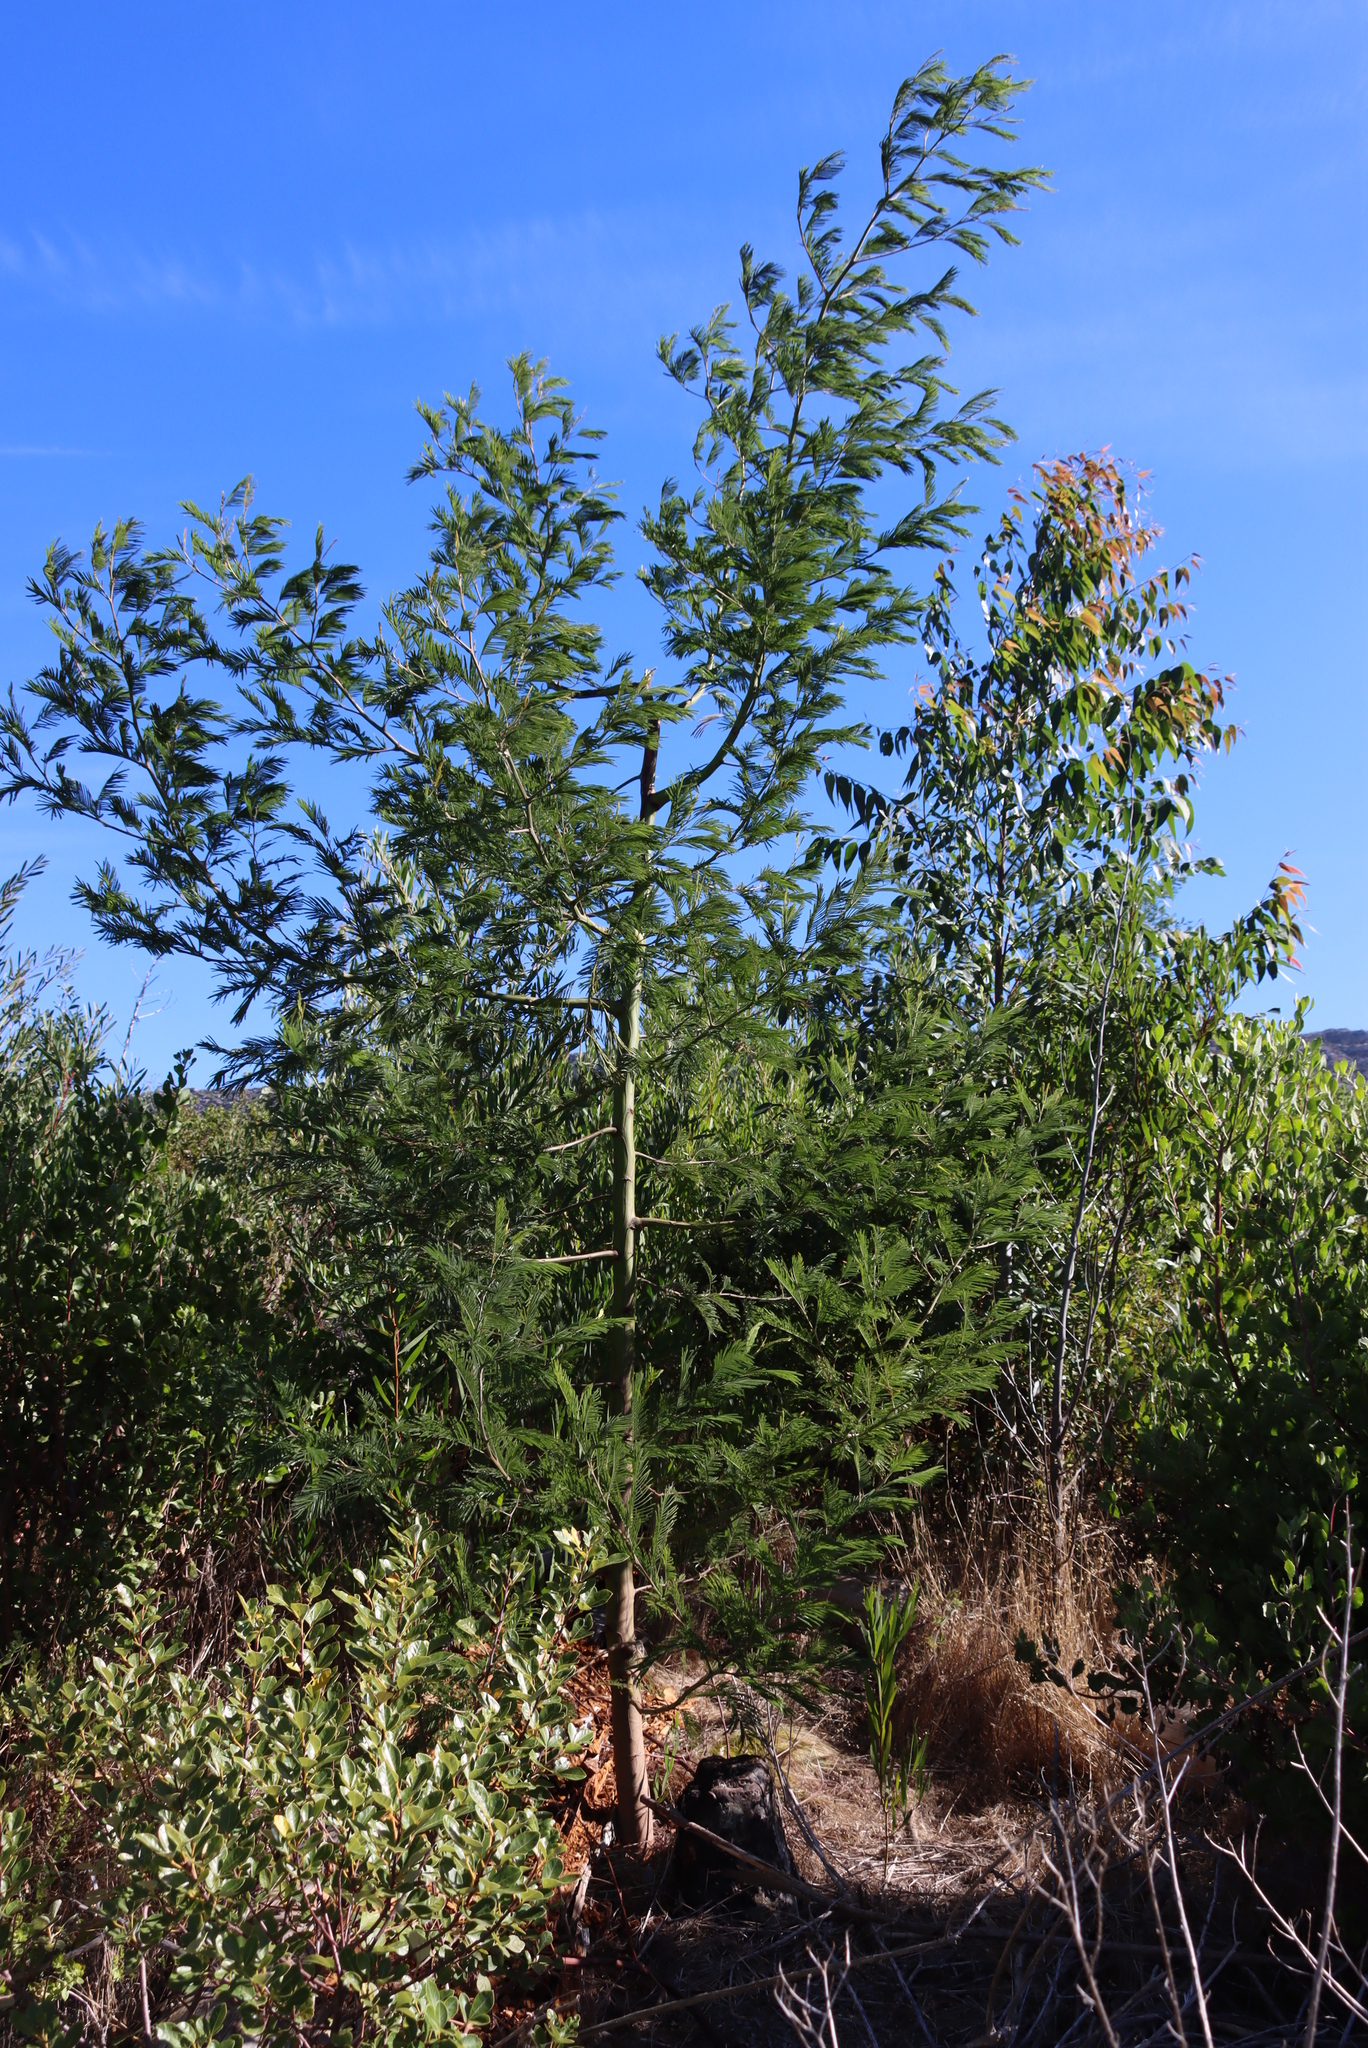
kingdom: Plantae
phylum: Tracheophyta
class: Magnoliopsida
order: Fabales
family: Fabaceae
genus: Acacia
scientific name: Acacia mearnsii
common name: Black wattle
